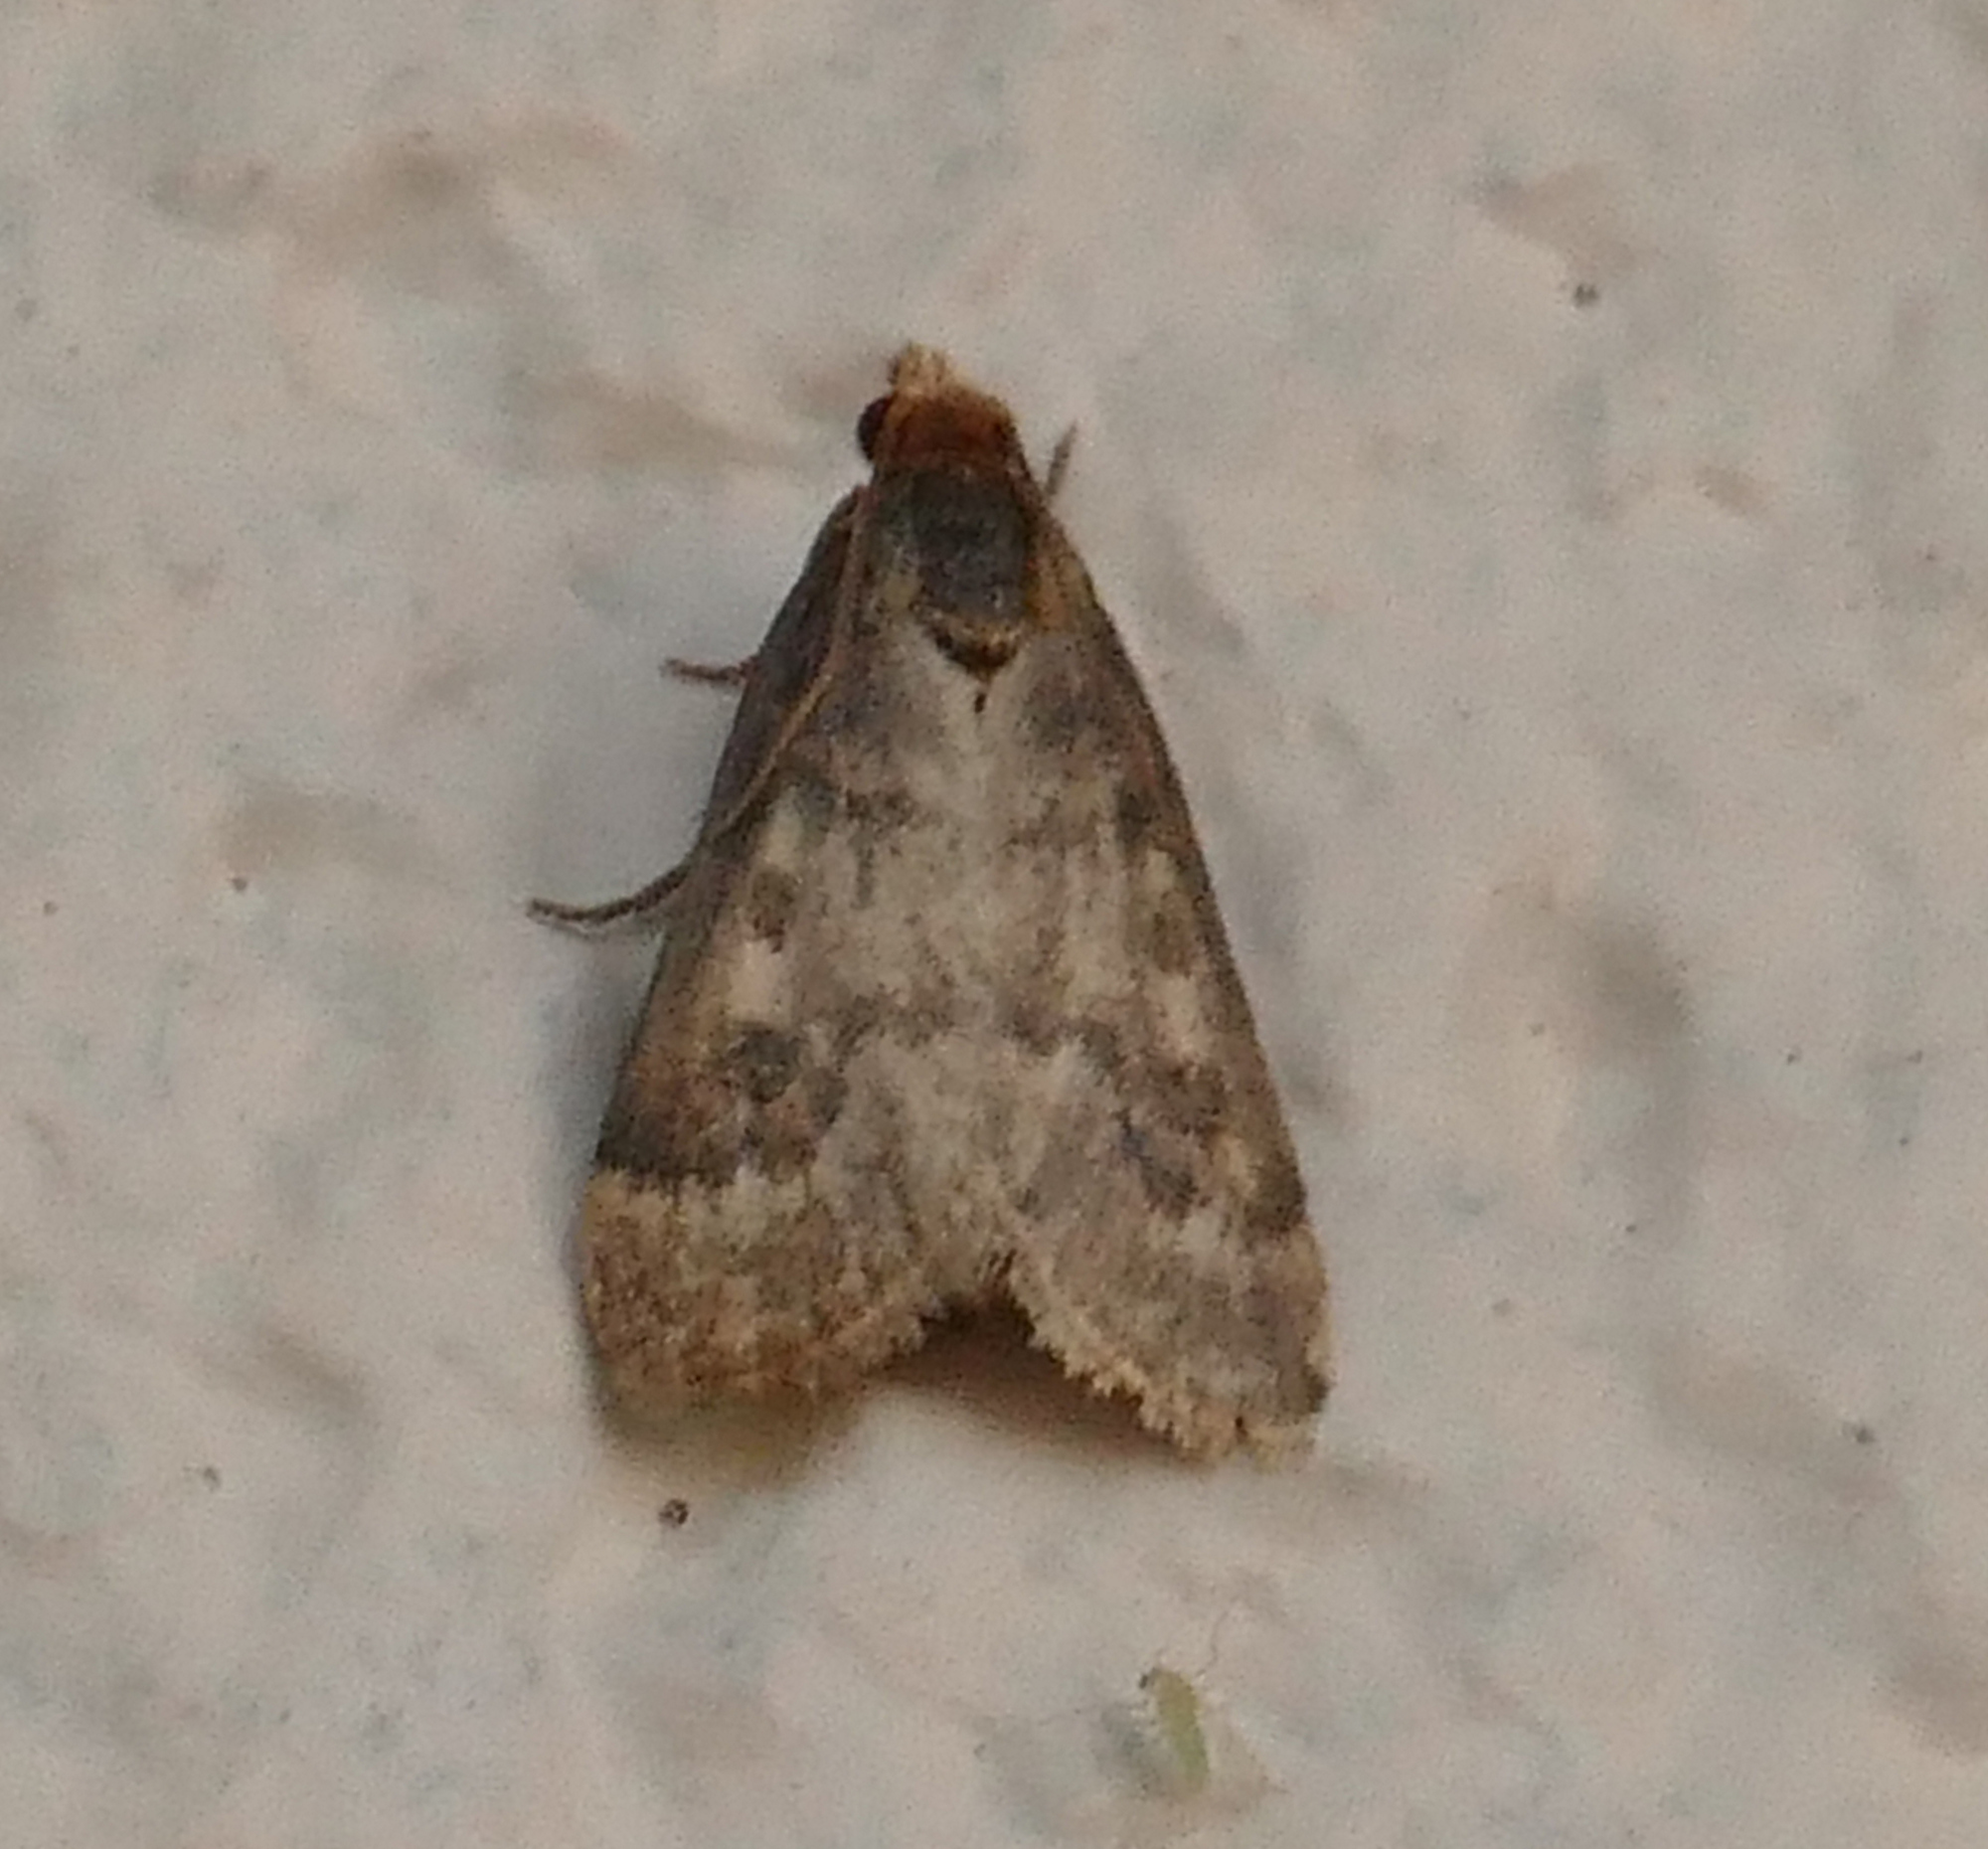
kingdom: Animalia
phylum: Arthropoda
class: Insecta
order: Lepidoptera
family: Crambidae
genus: Achyra
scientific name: Achyra rantalis
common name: Garden webworm
